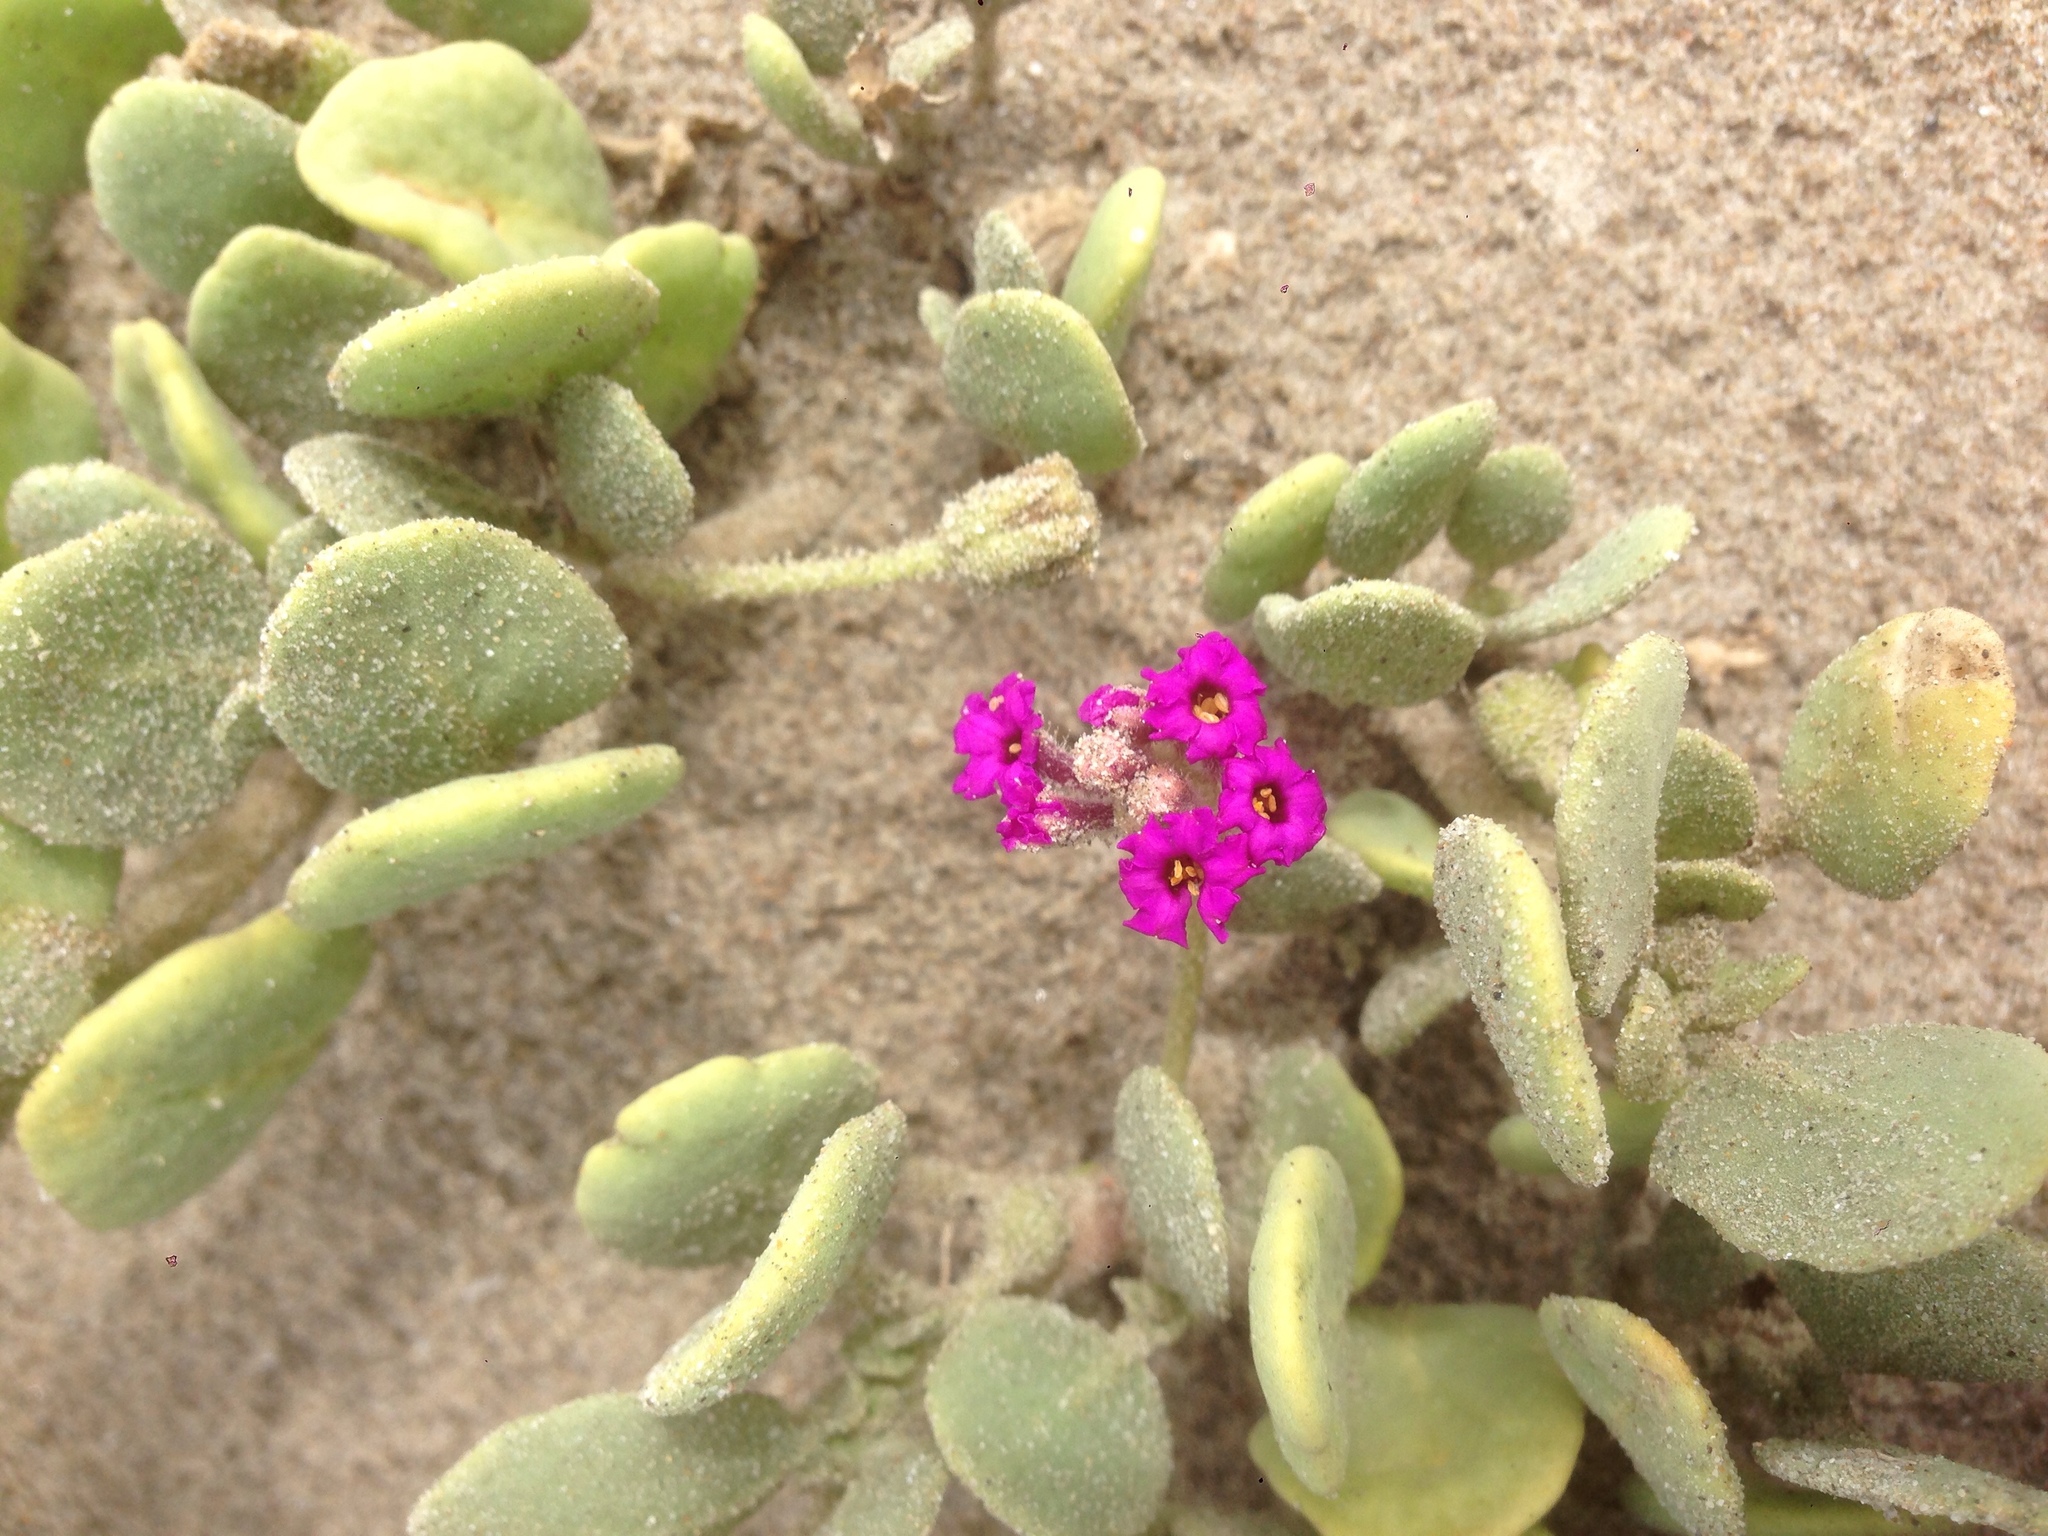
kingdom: Plantae
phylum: Tracheophyta
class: Magnoliopsida
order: Caryophyllales
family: Nyctaginaceae
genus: Abronia
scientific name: Abronia maritima
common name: Red sand-verbena
